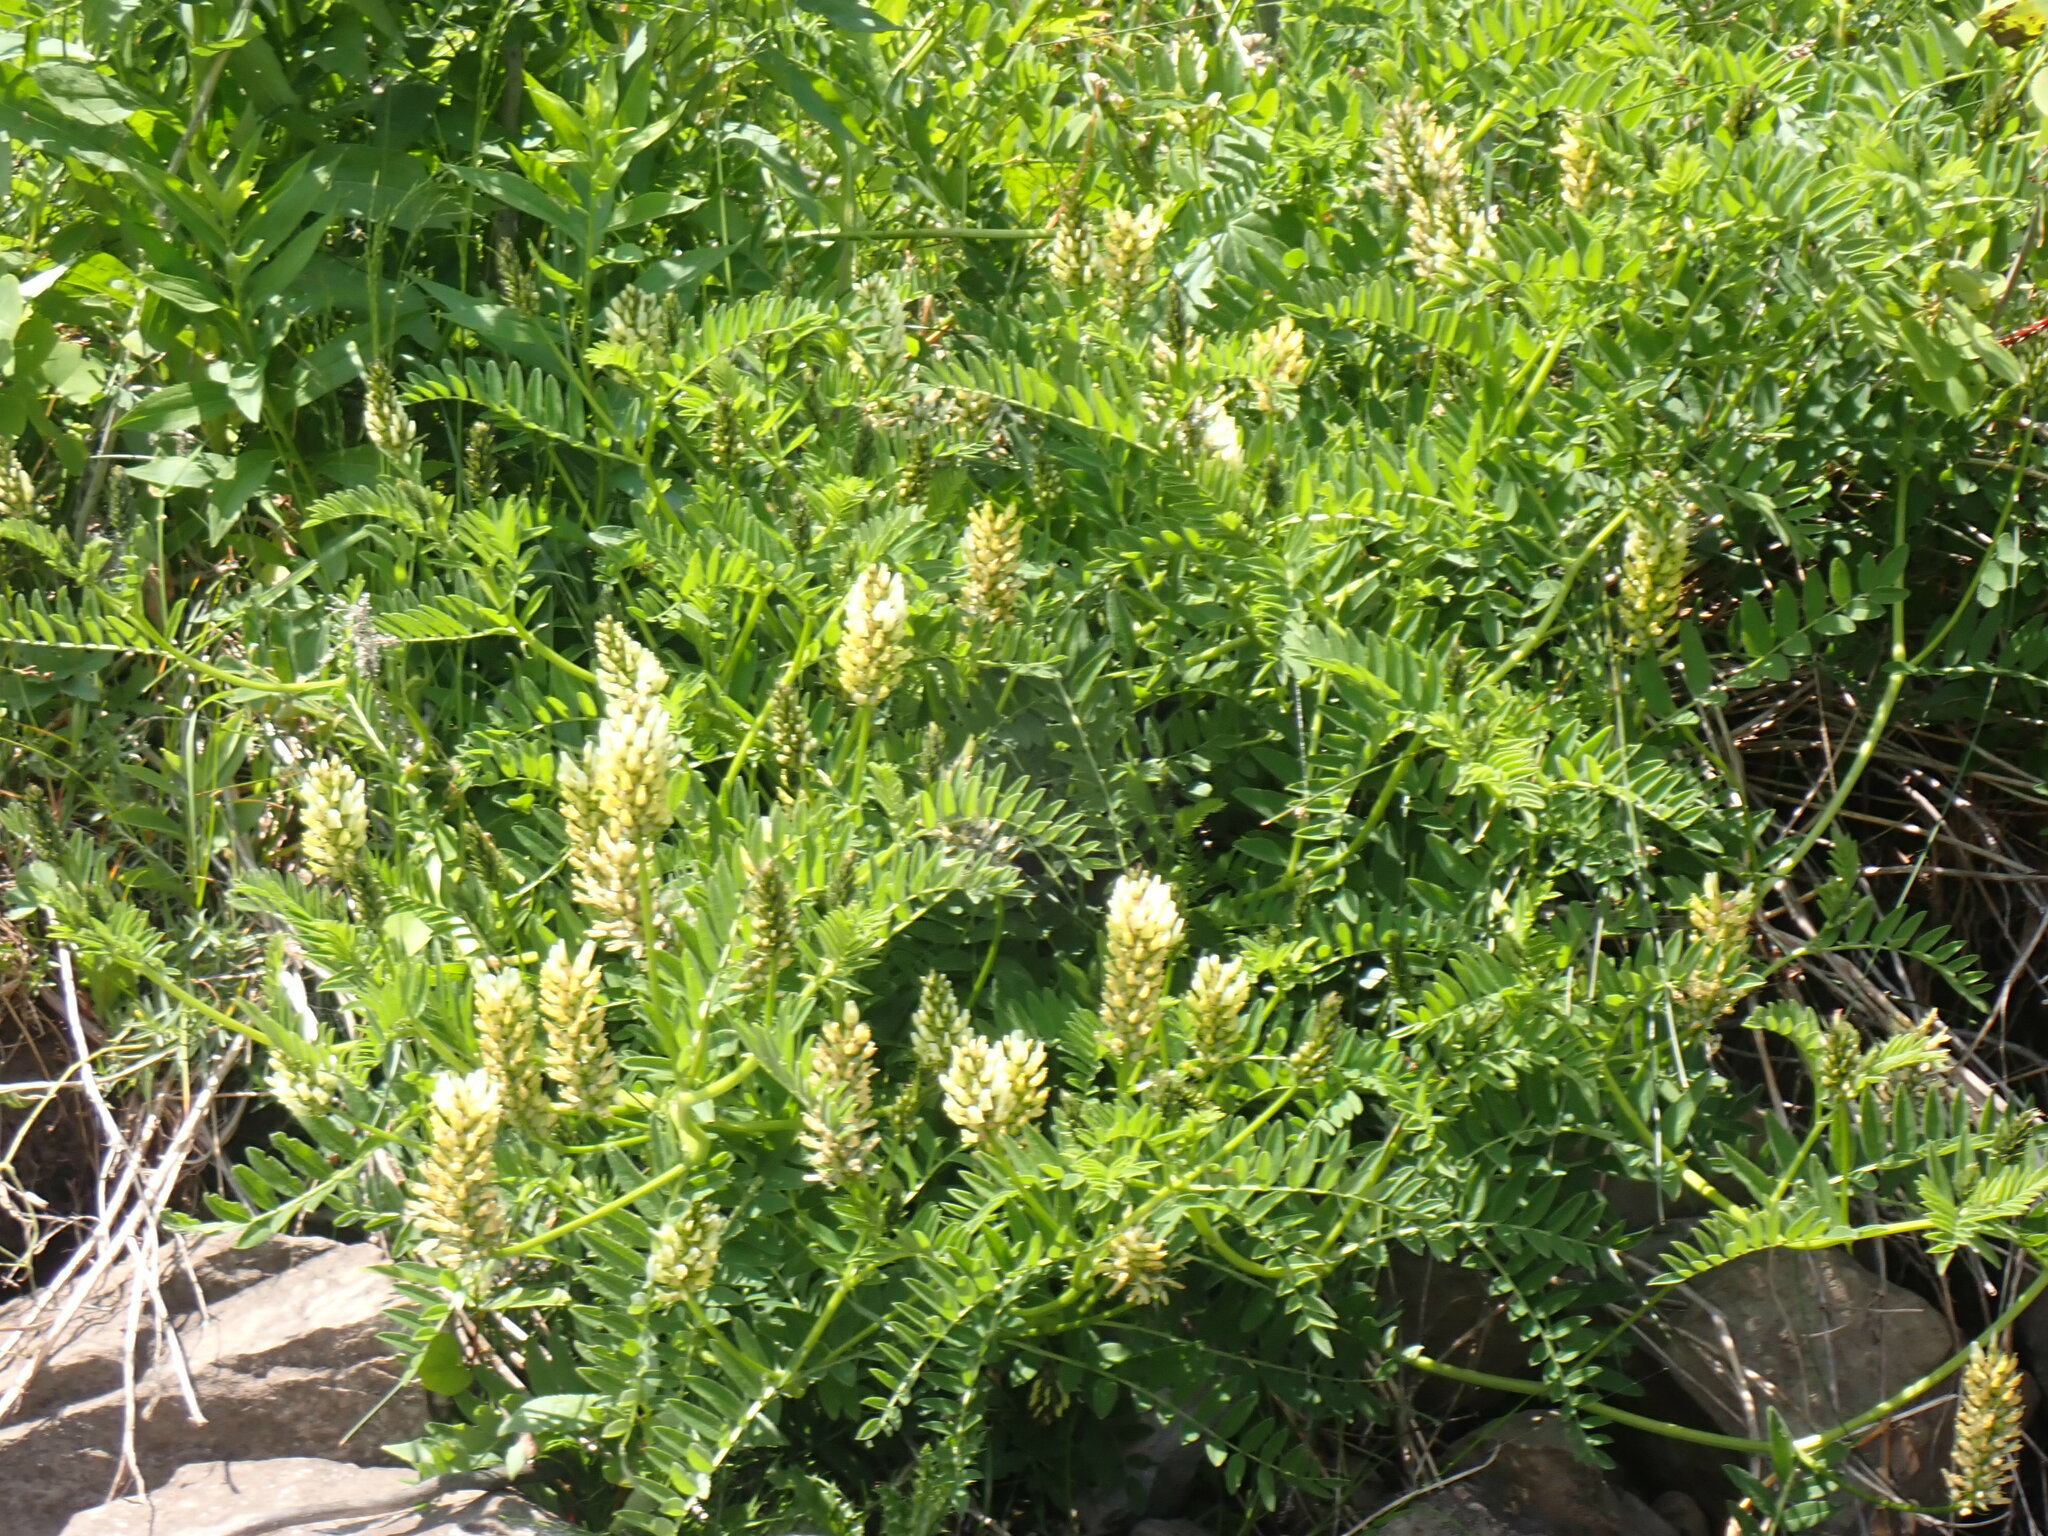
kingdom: Plantae
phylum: Tracheophyta
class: Magnoliopsida
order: Fabales
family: Fabaceae
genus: Astragalus
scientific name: Astragalus cicer
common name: Chick-pea milk-vetch
